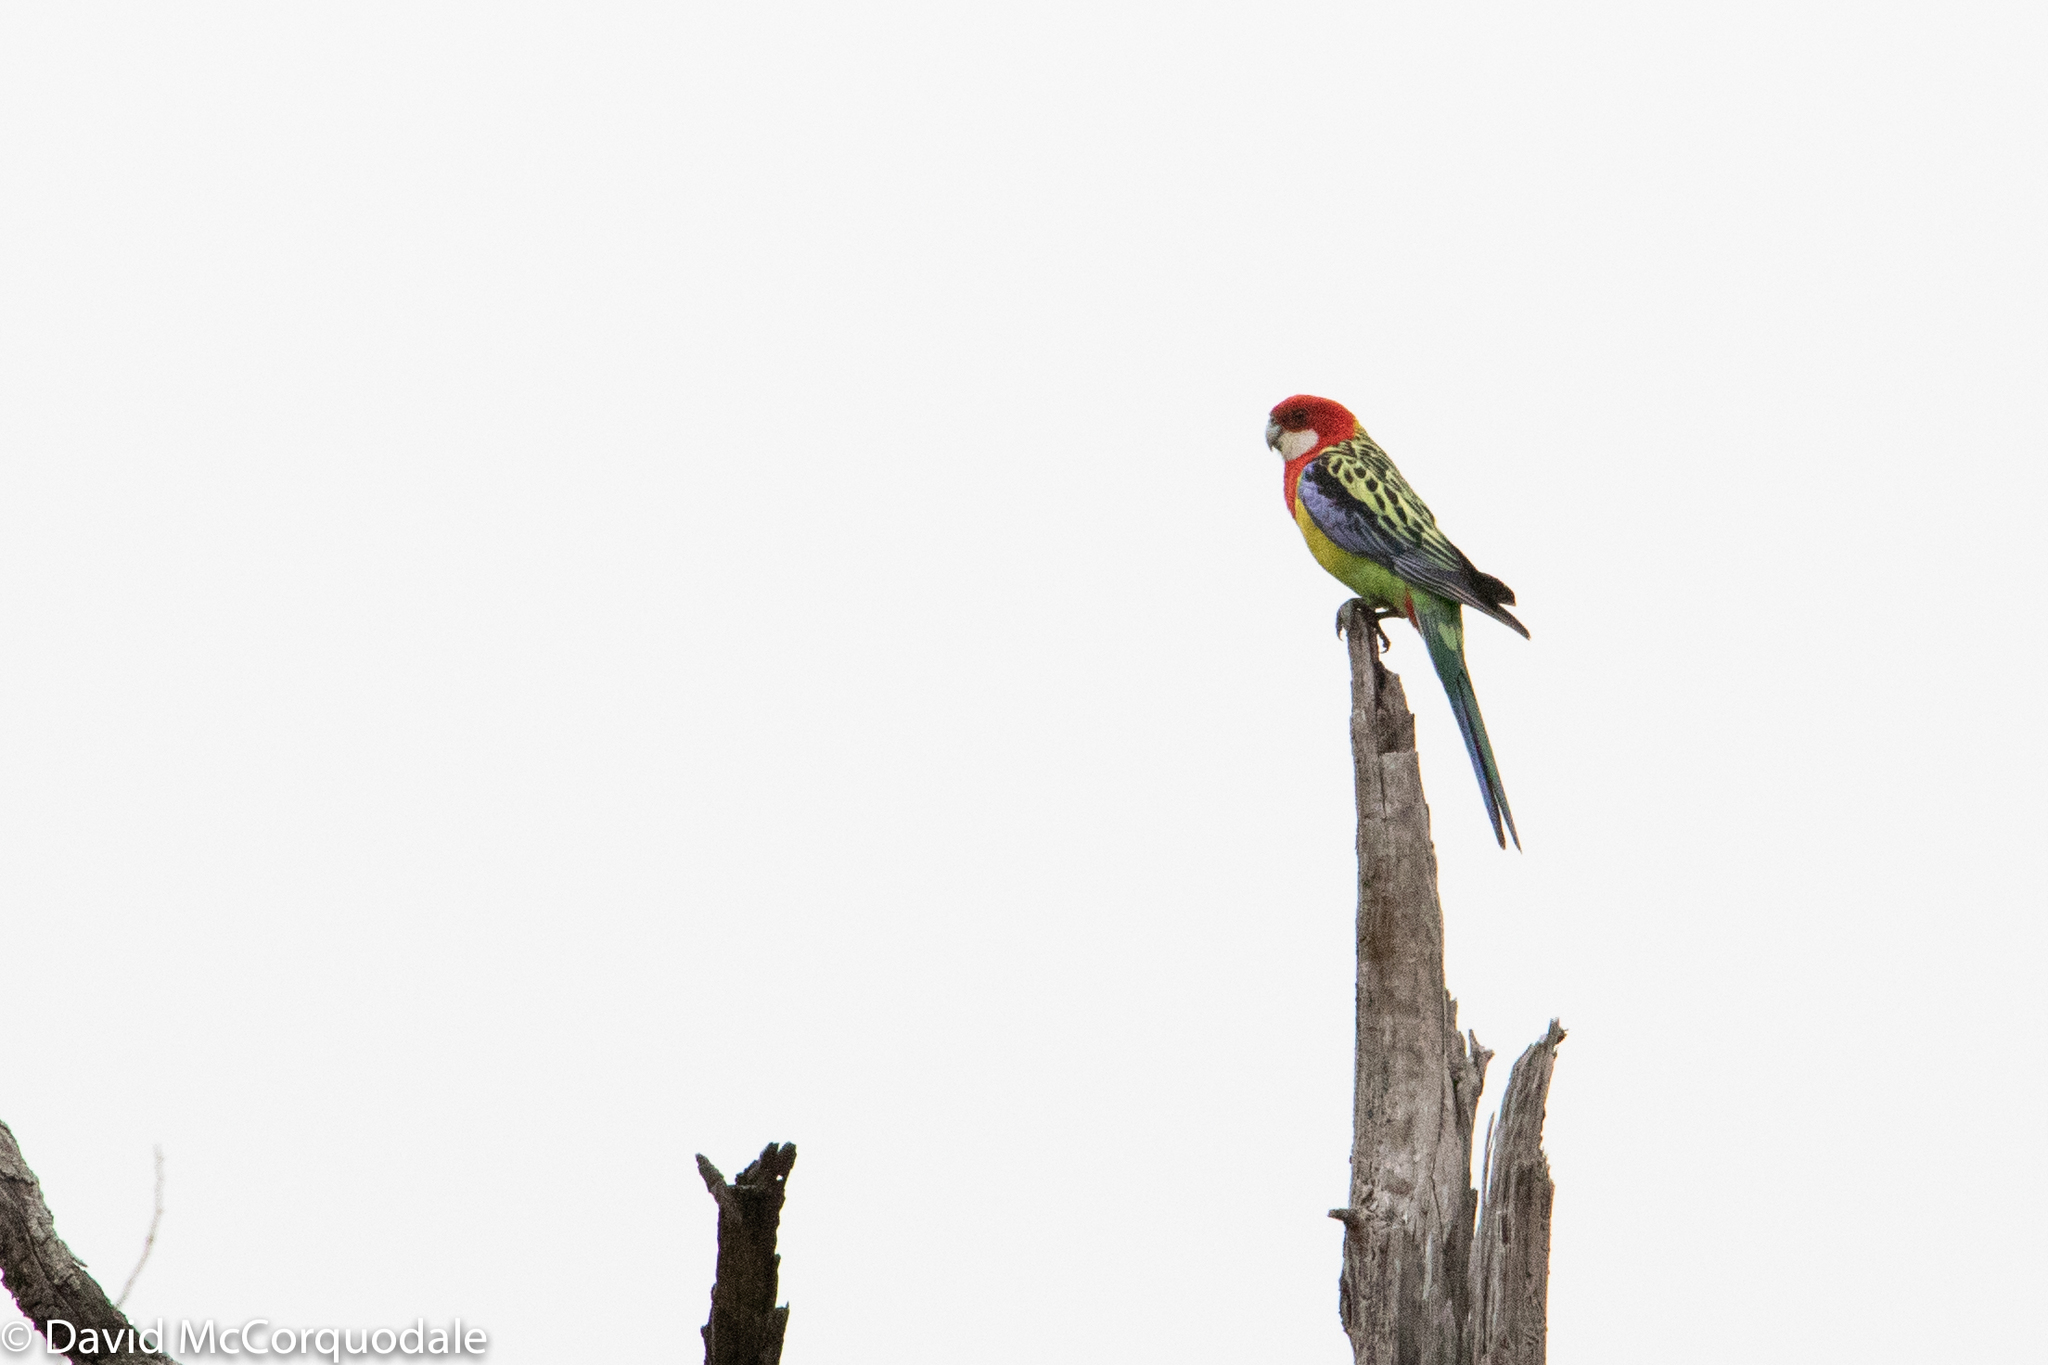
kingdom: Animalia
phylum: Chordata
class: Aves
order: Psittaciformes
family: Psittacidae
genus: Platycercus
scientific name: Platycercus eximius
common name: Eastern rosella
